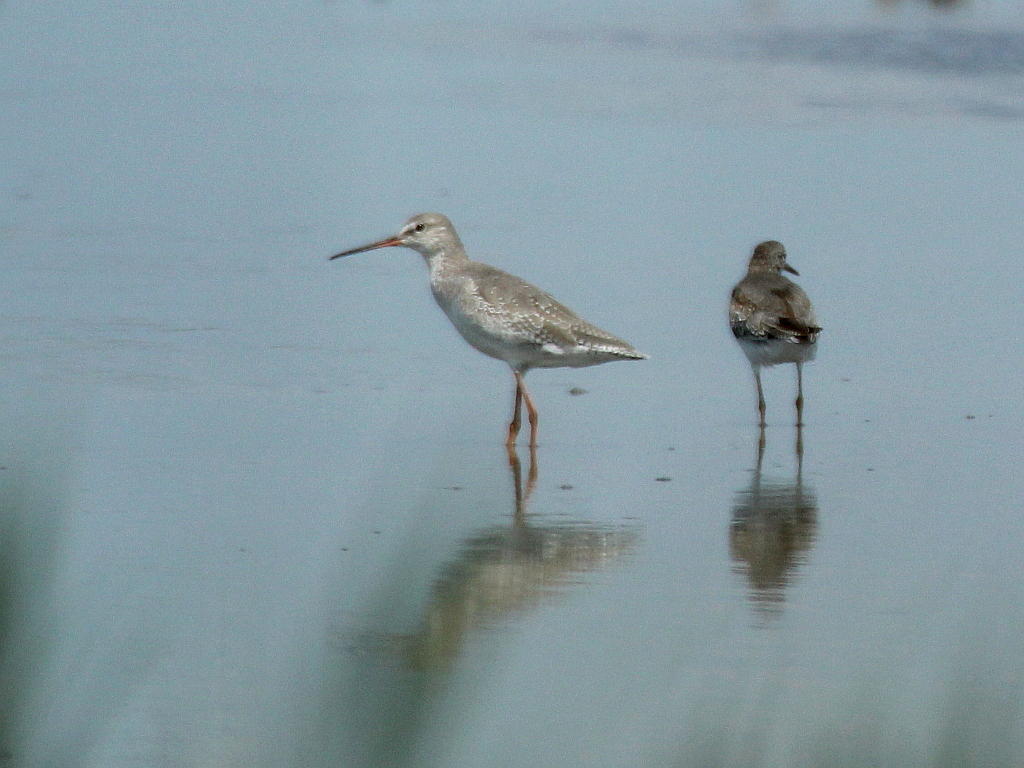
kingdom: Animalia
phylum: Chordata
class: Aves
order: Charadriiformes
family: Scolopacidae
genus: Tringa
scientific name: Tringa erythropus
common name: Spotted redshank
